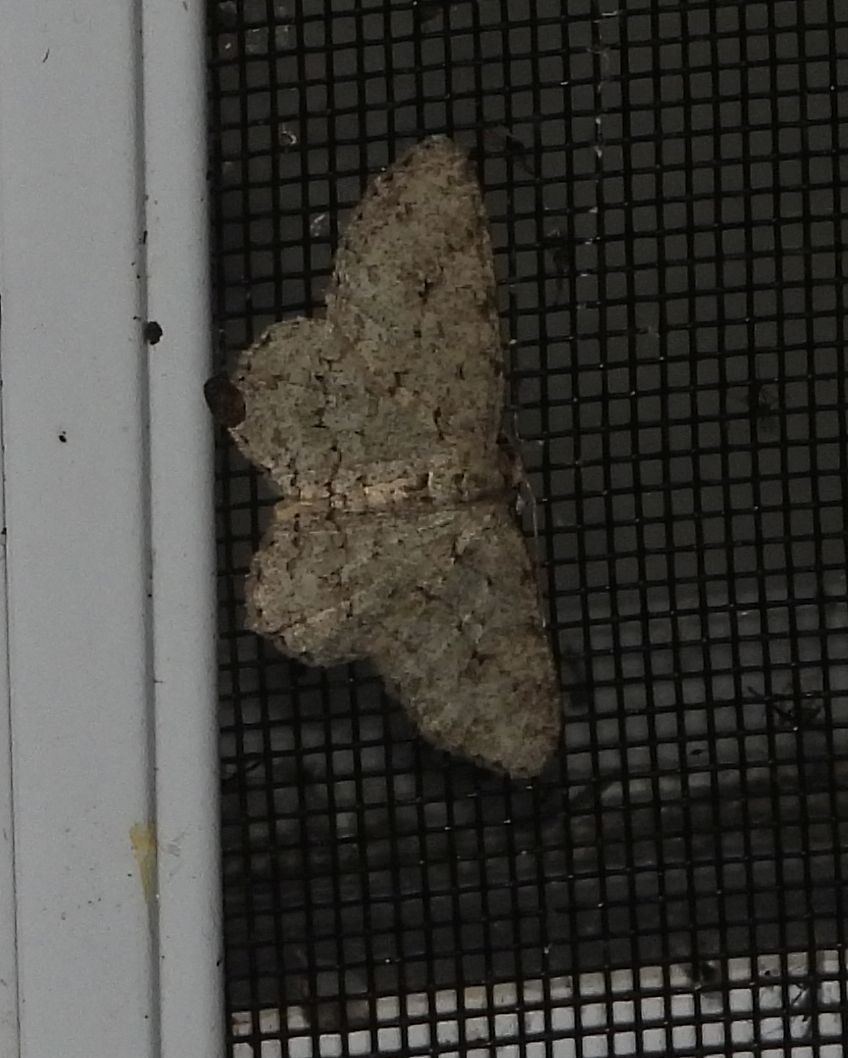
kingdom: Animalia
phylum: Arthropoda
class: Insecta
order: Lepidoptera
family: Geometridae
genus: Ectropis
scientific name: Ectropis crepuscularia
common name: Engrailed
